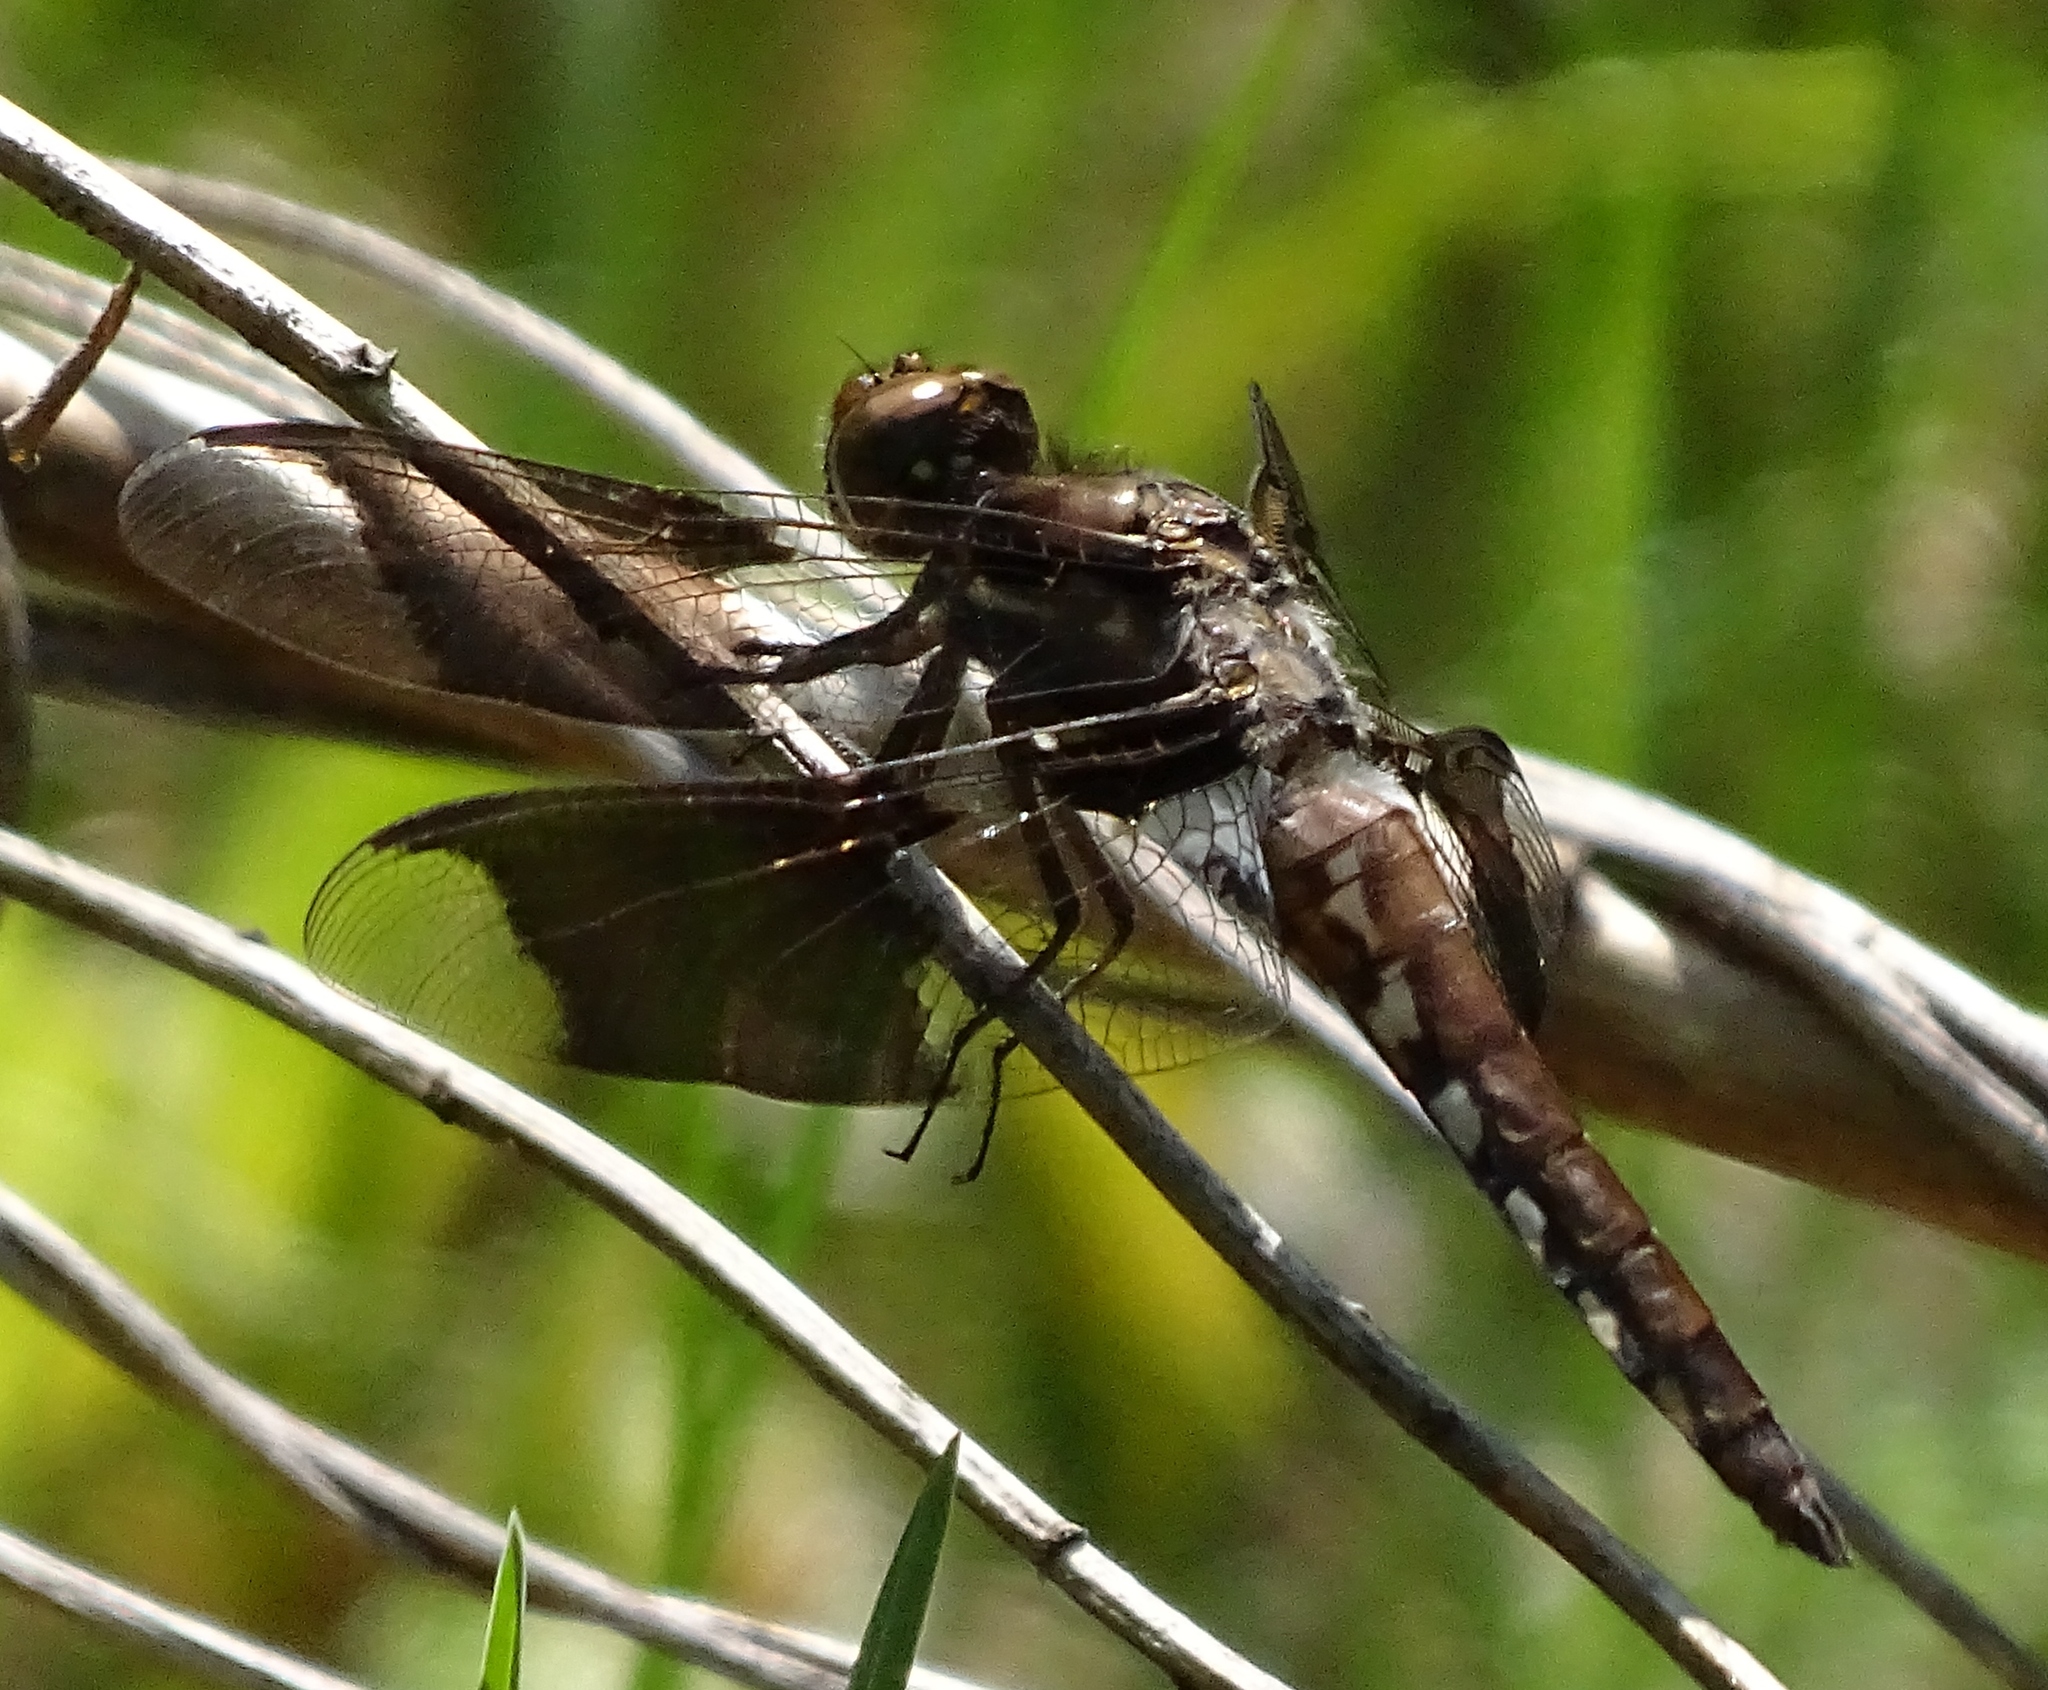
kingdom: Animalia
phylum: Arthropoda
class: Insecta
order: Odonata
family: Libellulidae
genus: Plathemis
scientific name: Plathemis lydia
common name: Common whitetail
